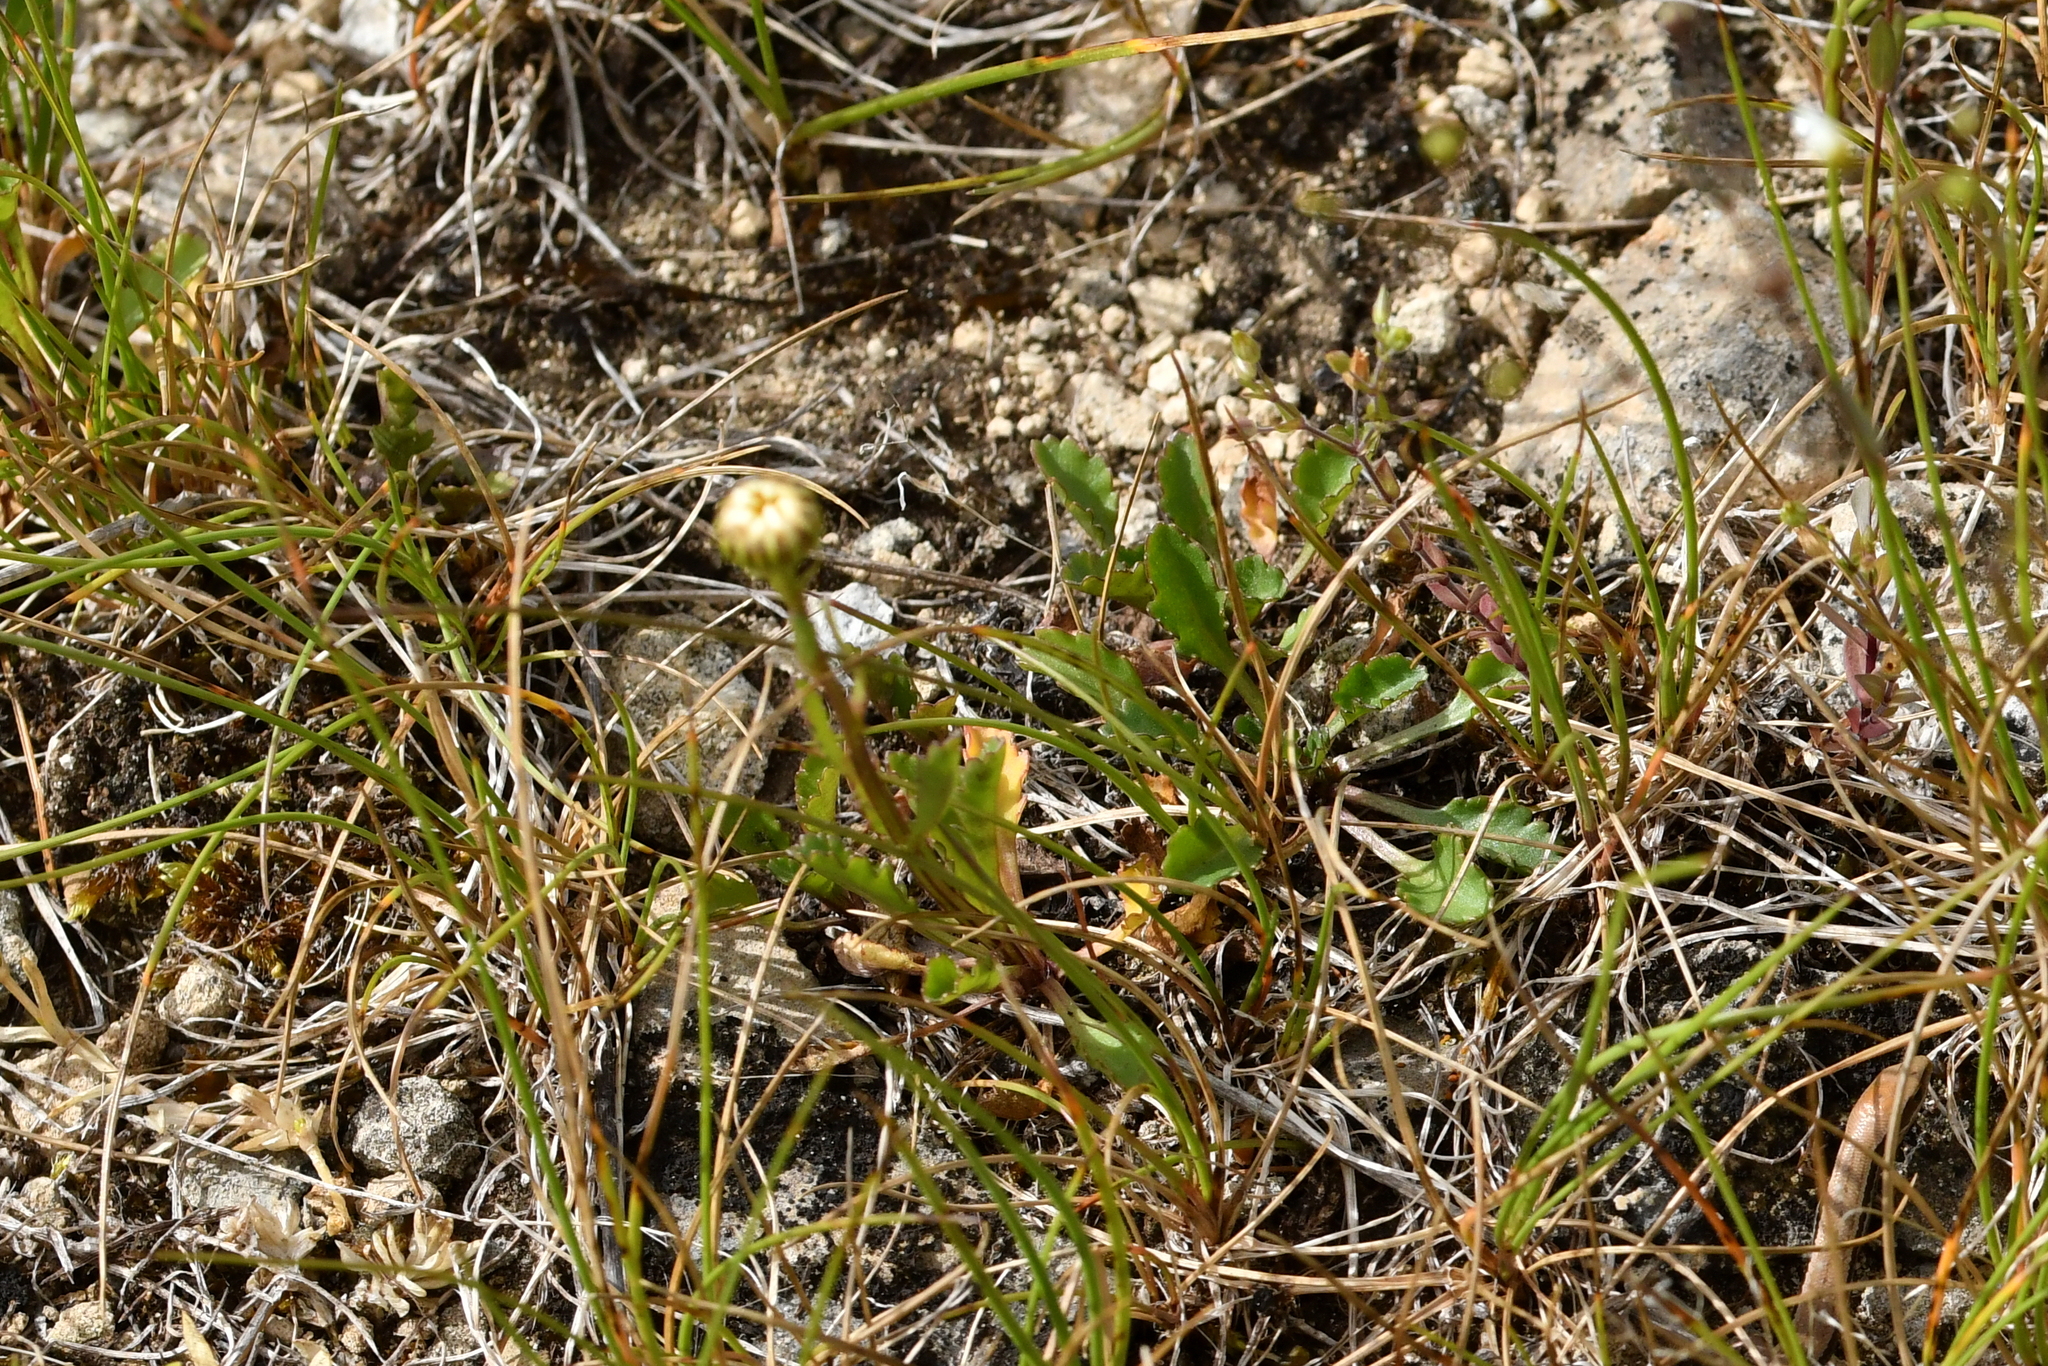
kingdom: Plantae
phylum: Tracheophyta
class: Magnoliopsida
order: Asterales
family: Asteraceae
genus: Brachyscome
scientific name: Brachyscome sinclairii
